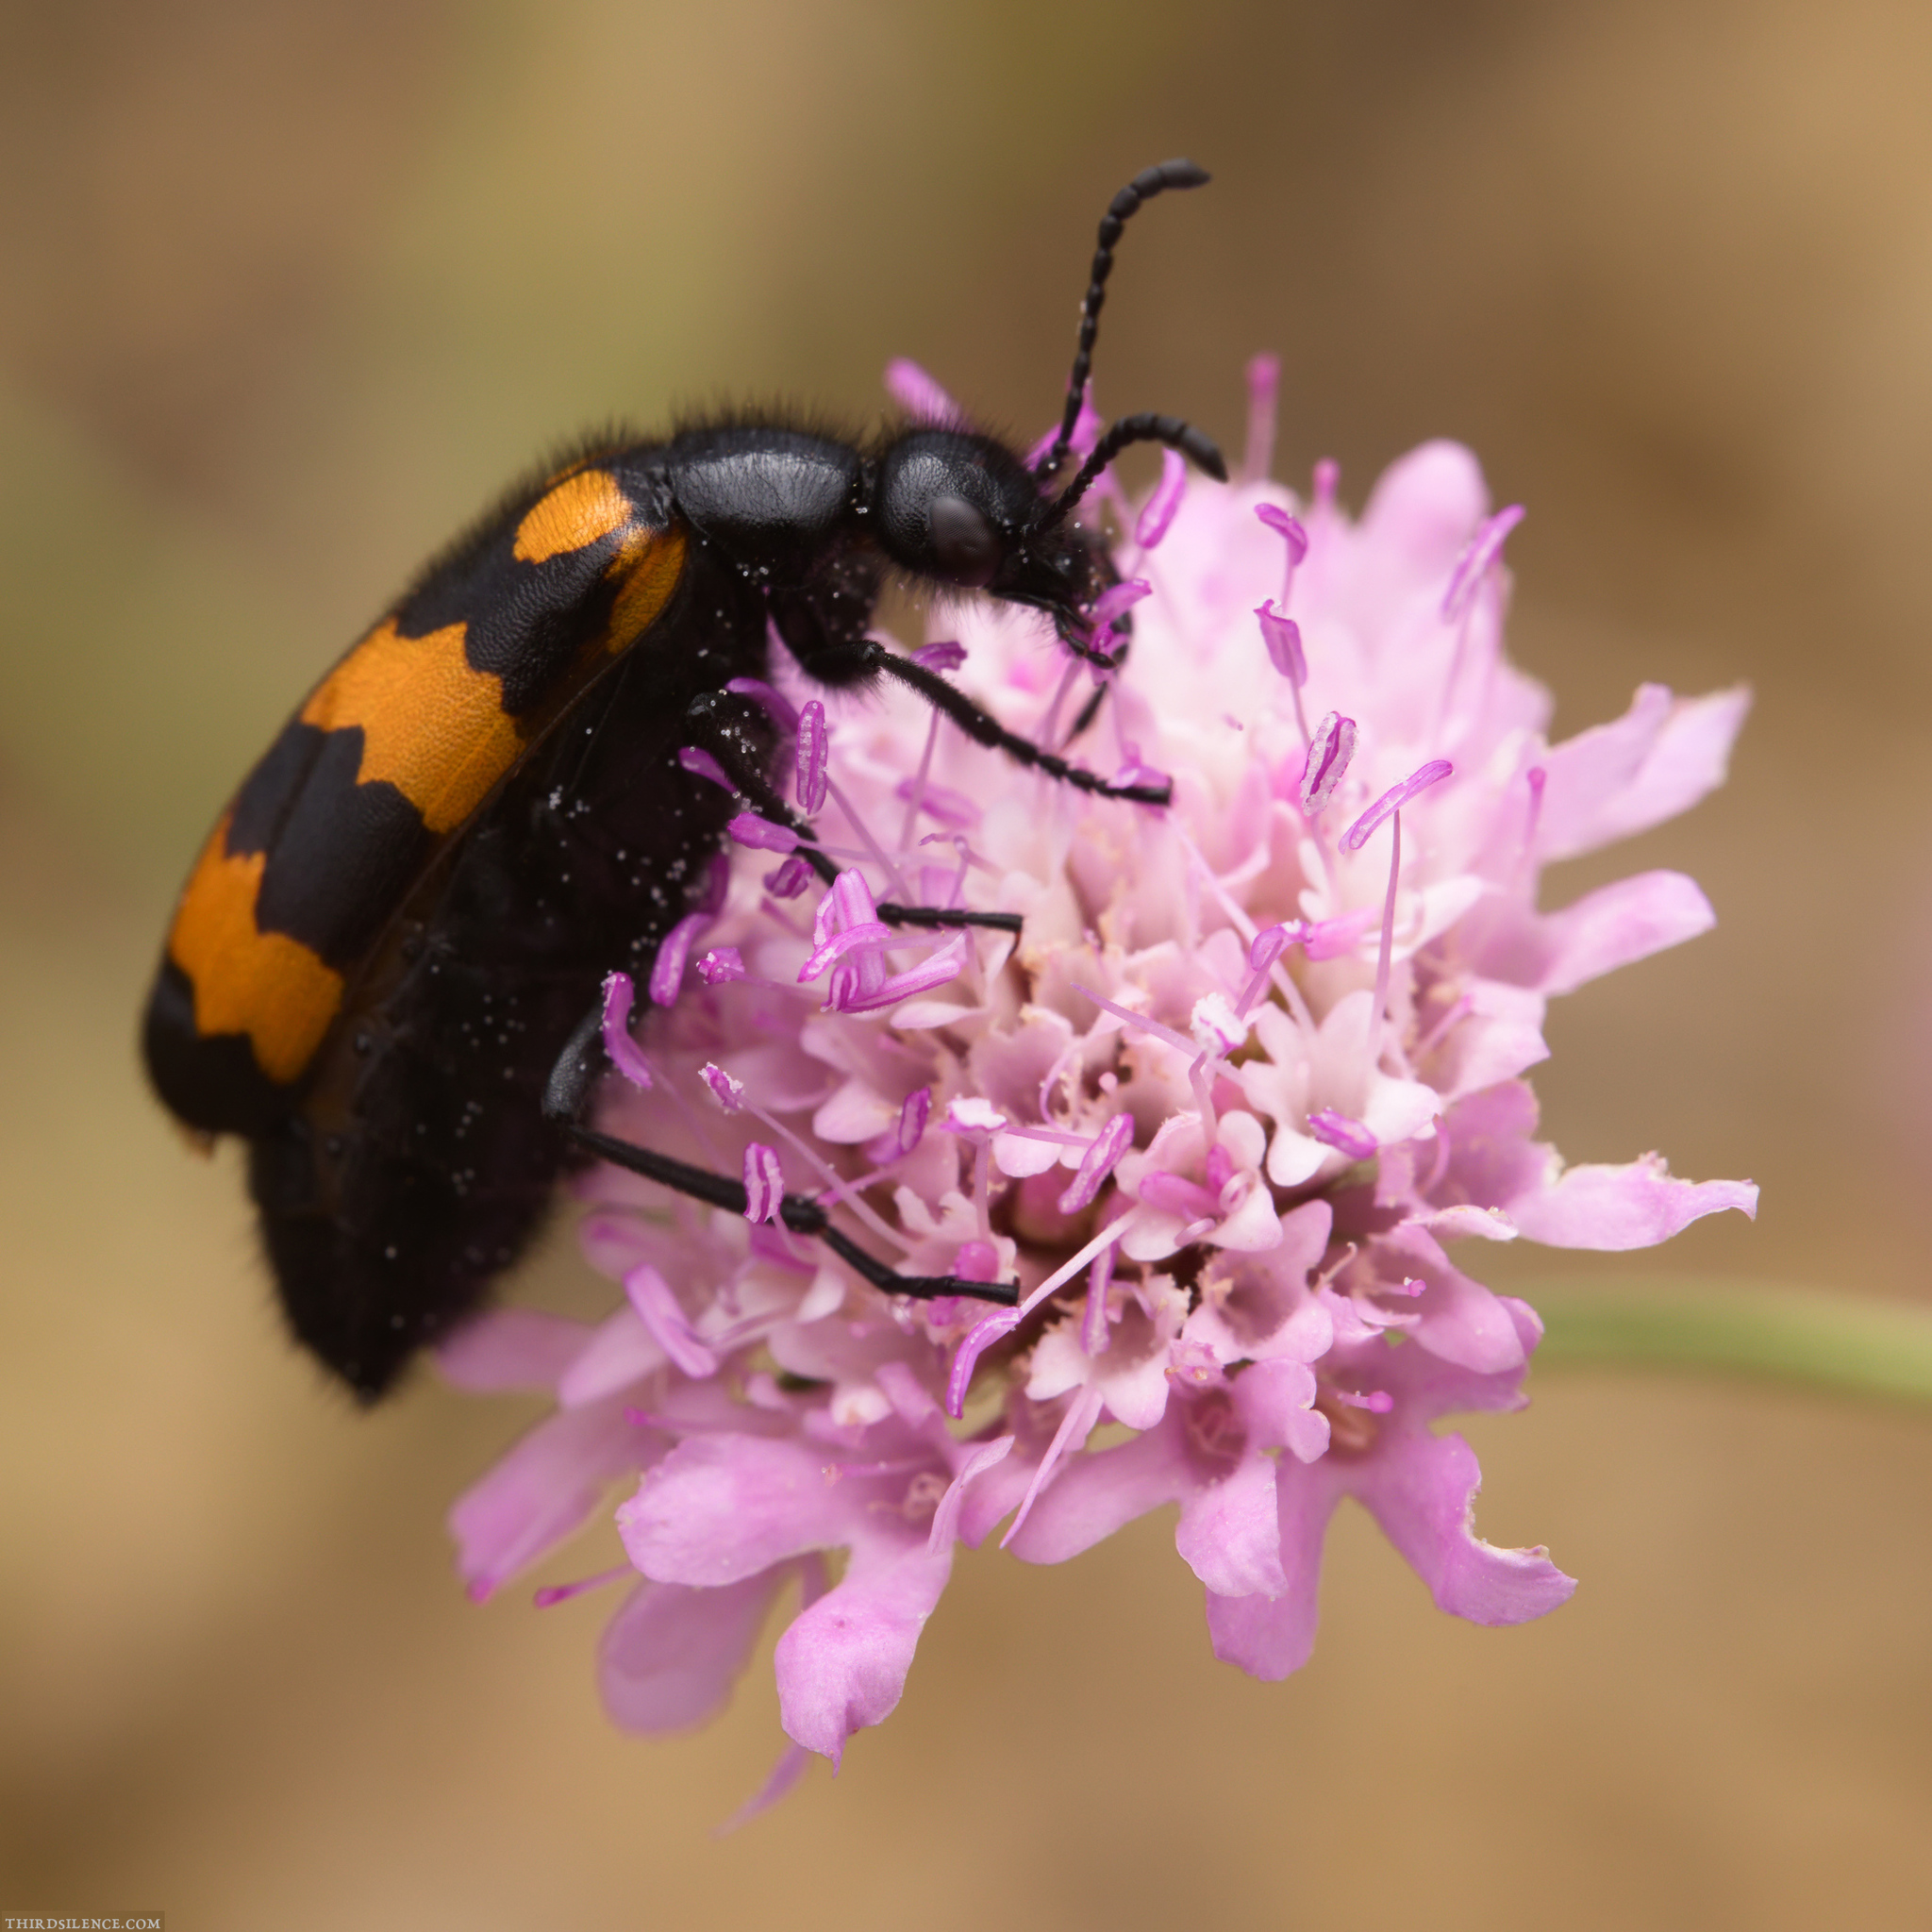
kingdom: Animalia
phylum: Arthropoda
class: Insecta
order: Coleoptera
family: Meloidae
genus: Mylabris
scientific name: Mylabris variabilis
